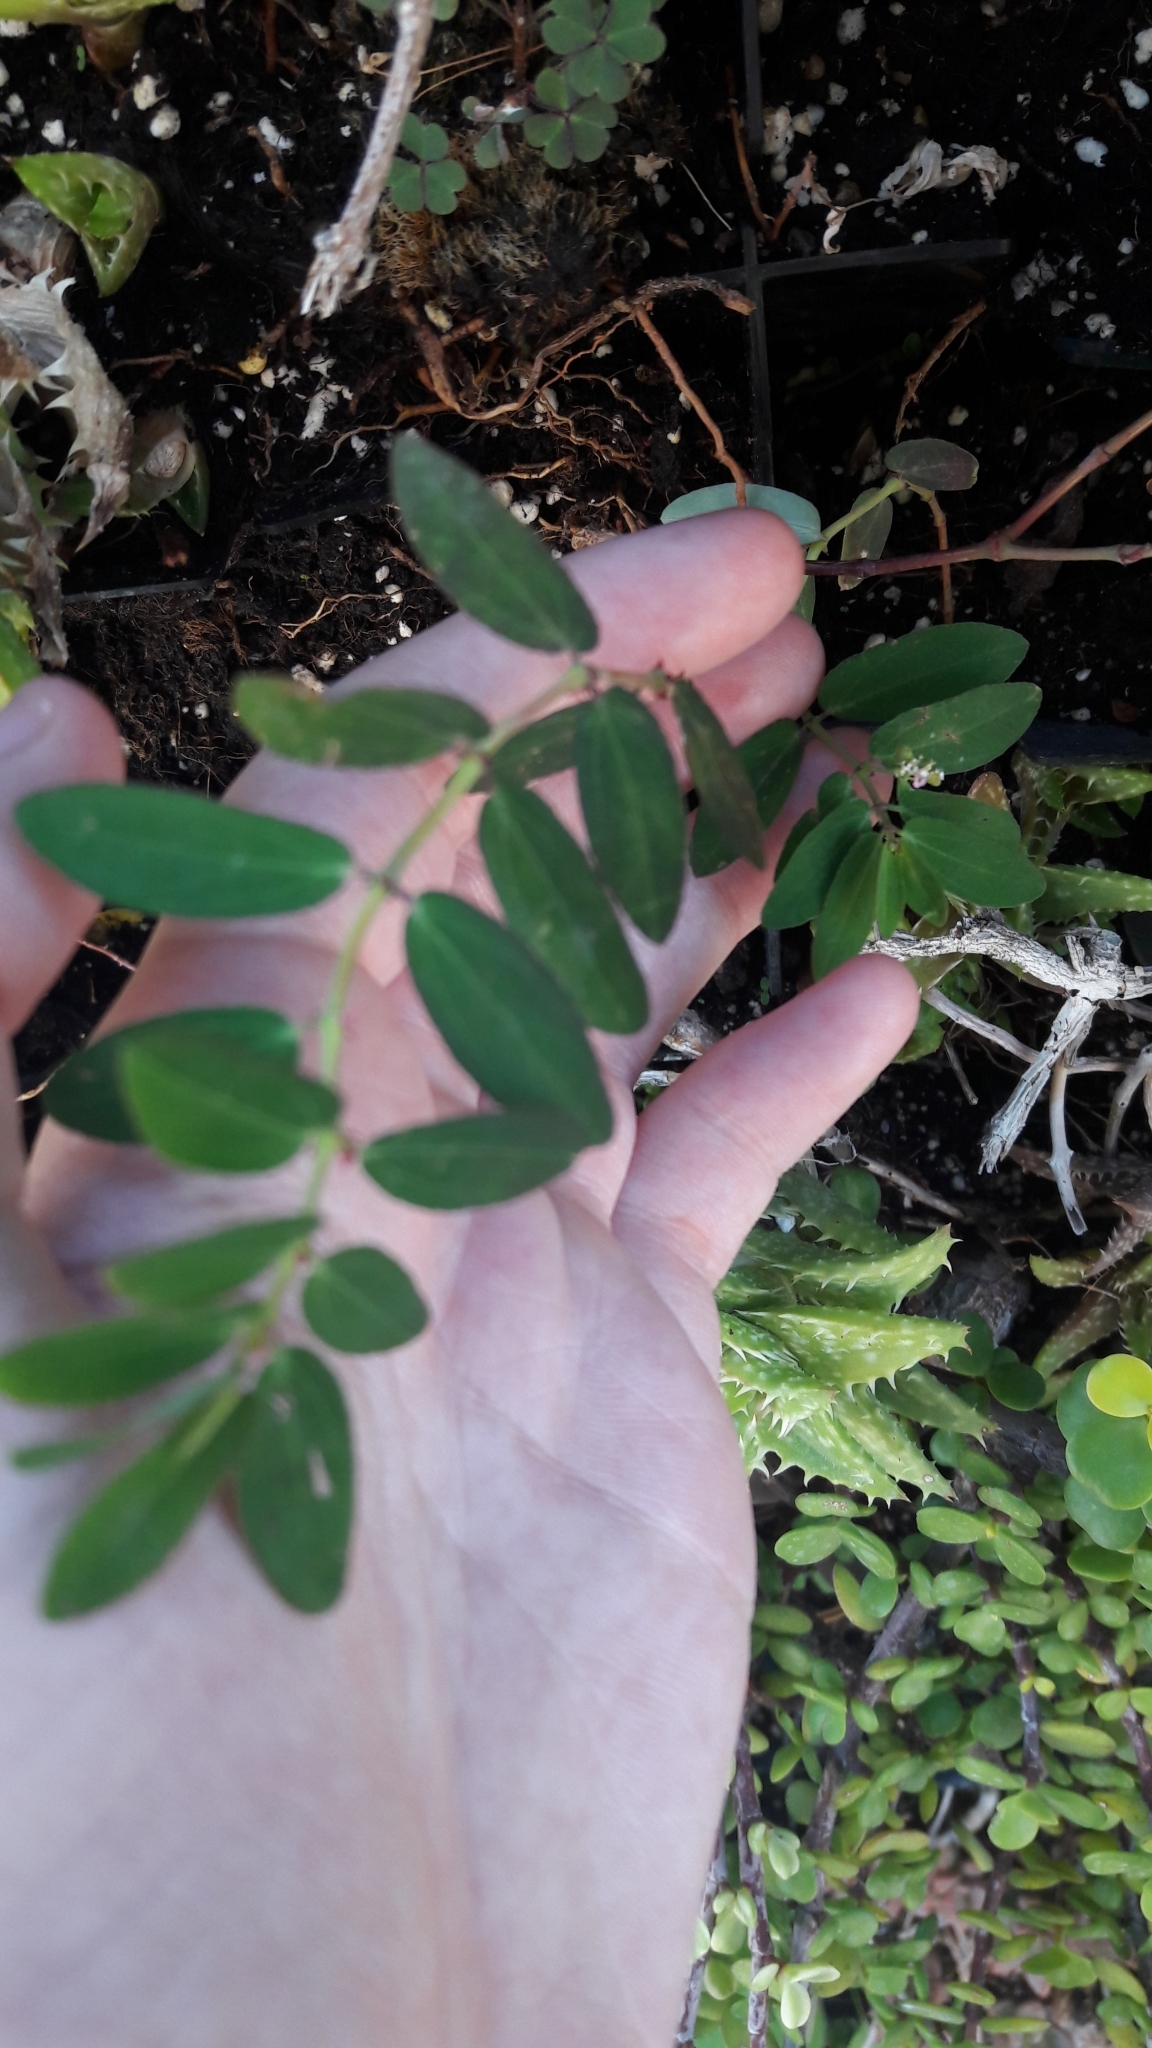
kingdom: Plantae
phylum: Tracheophyta
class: Magnoliopsida
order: Malpighiales
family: Euphorbiaceae
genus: Euphorbia
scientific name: Euphorbia hypericifolia
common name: Graceful sandmat
